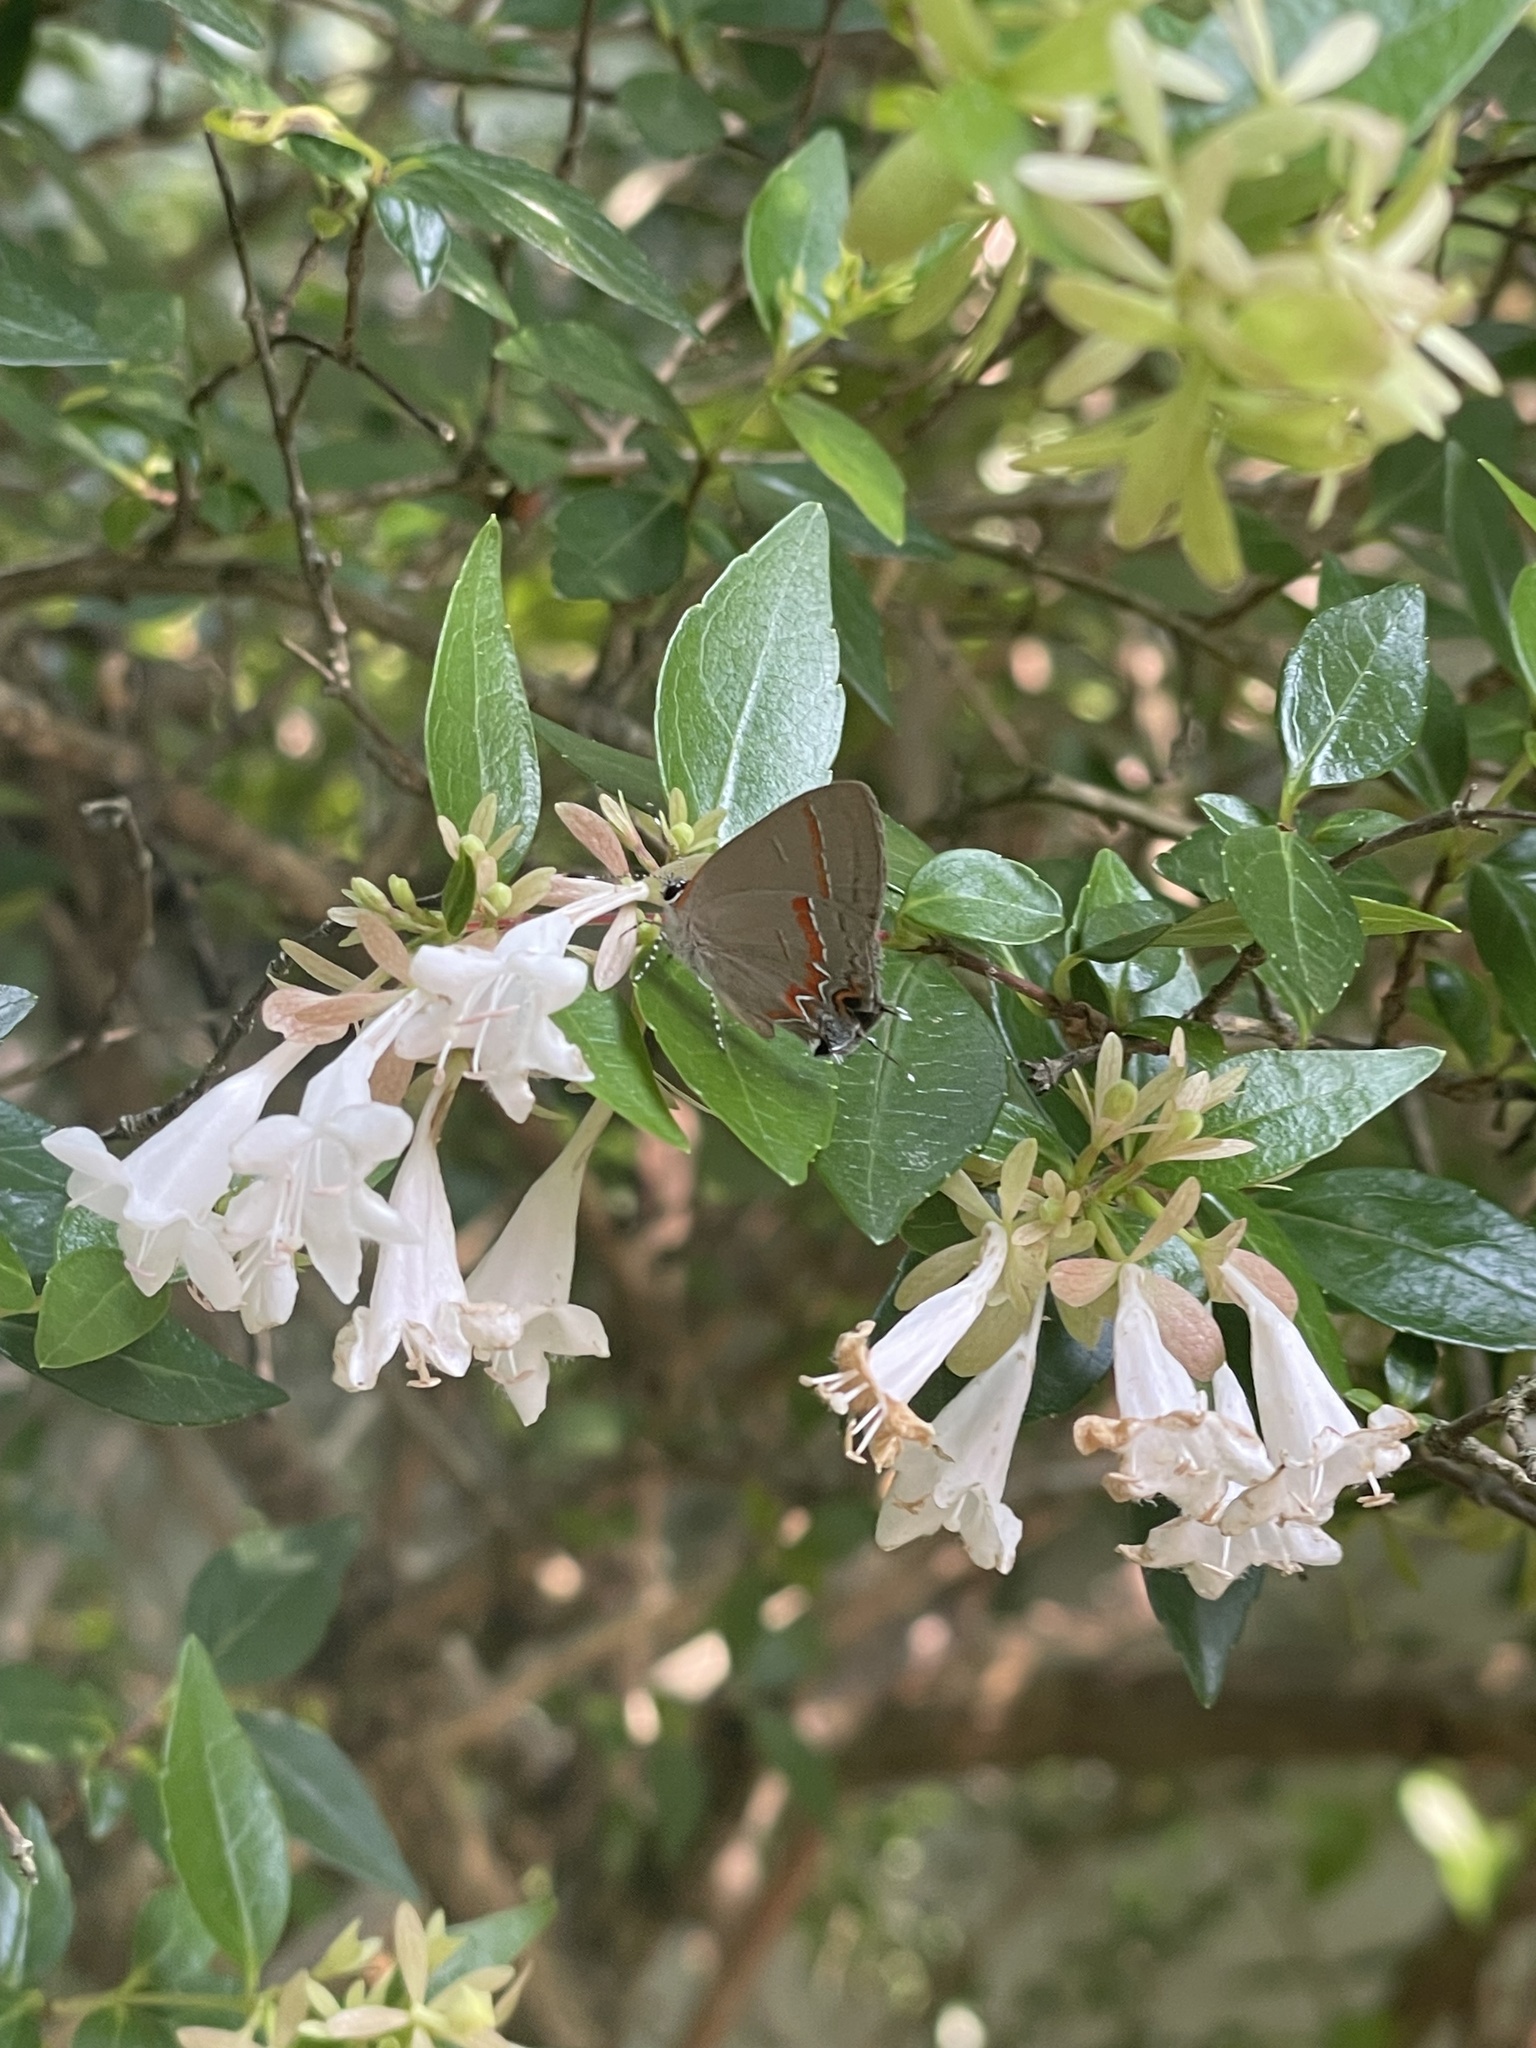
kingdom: Animalia
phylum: Arthropoda
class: Insecta
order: Lepidoptera
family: Lycaenidae
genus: Calycopis
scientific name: Calycopis cecrops
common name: Red-banded hairstreak
